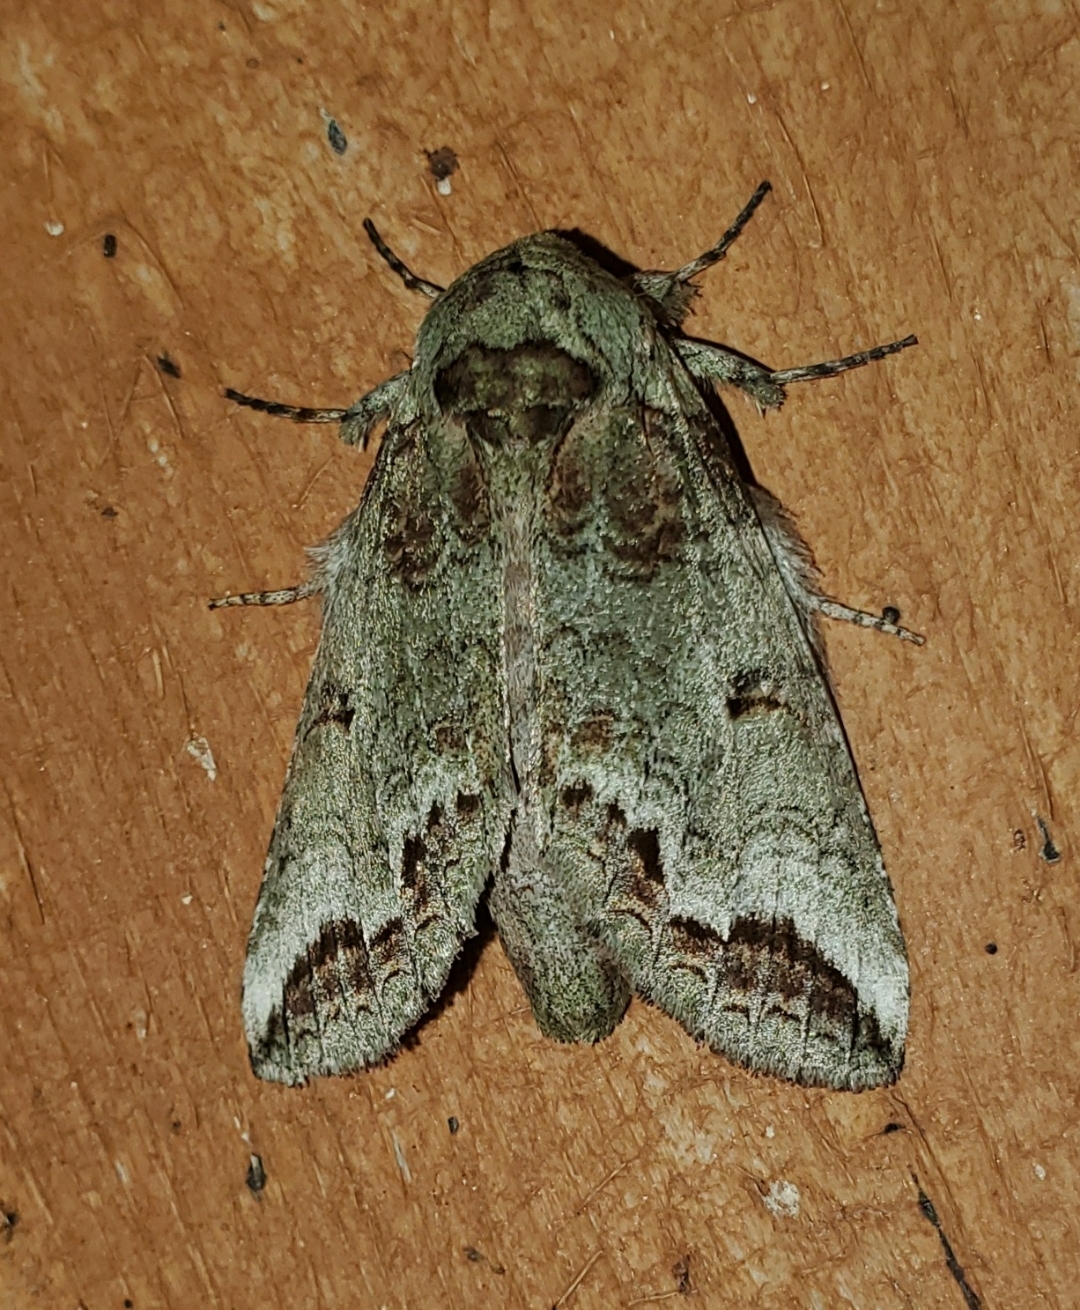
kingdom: Animalia
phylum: Arthropoda
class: Insecta
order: Lepidoptera
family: Notodontidae
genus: Heterocampa
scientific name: Heterocampa astarte
